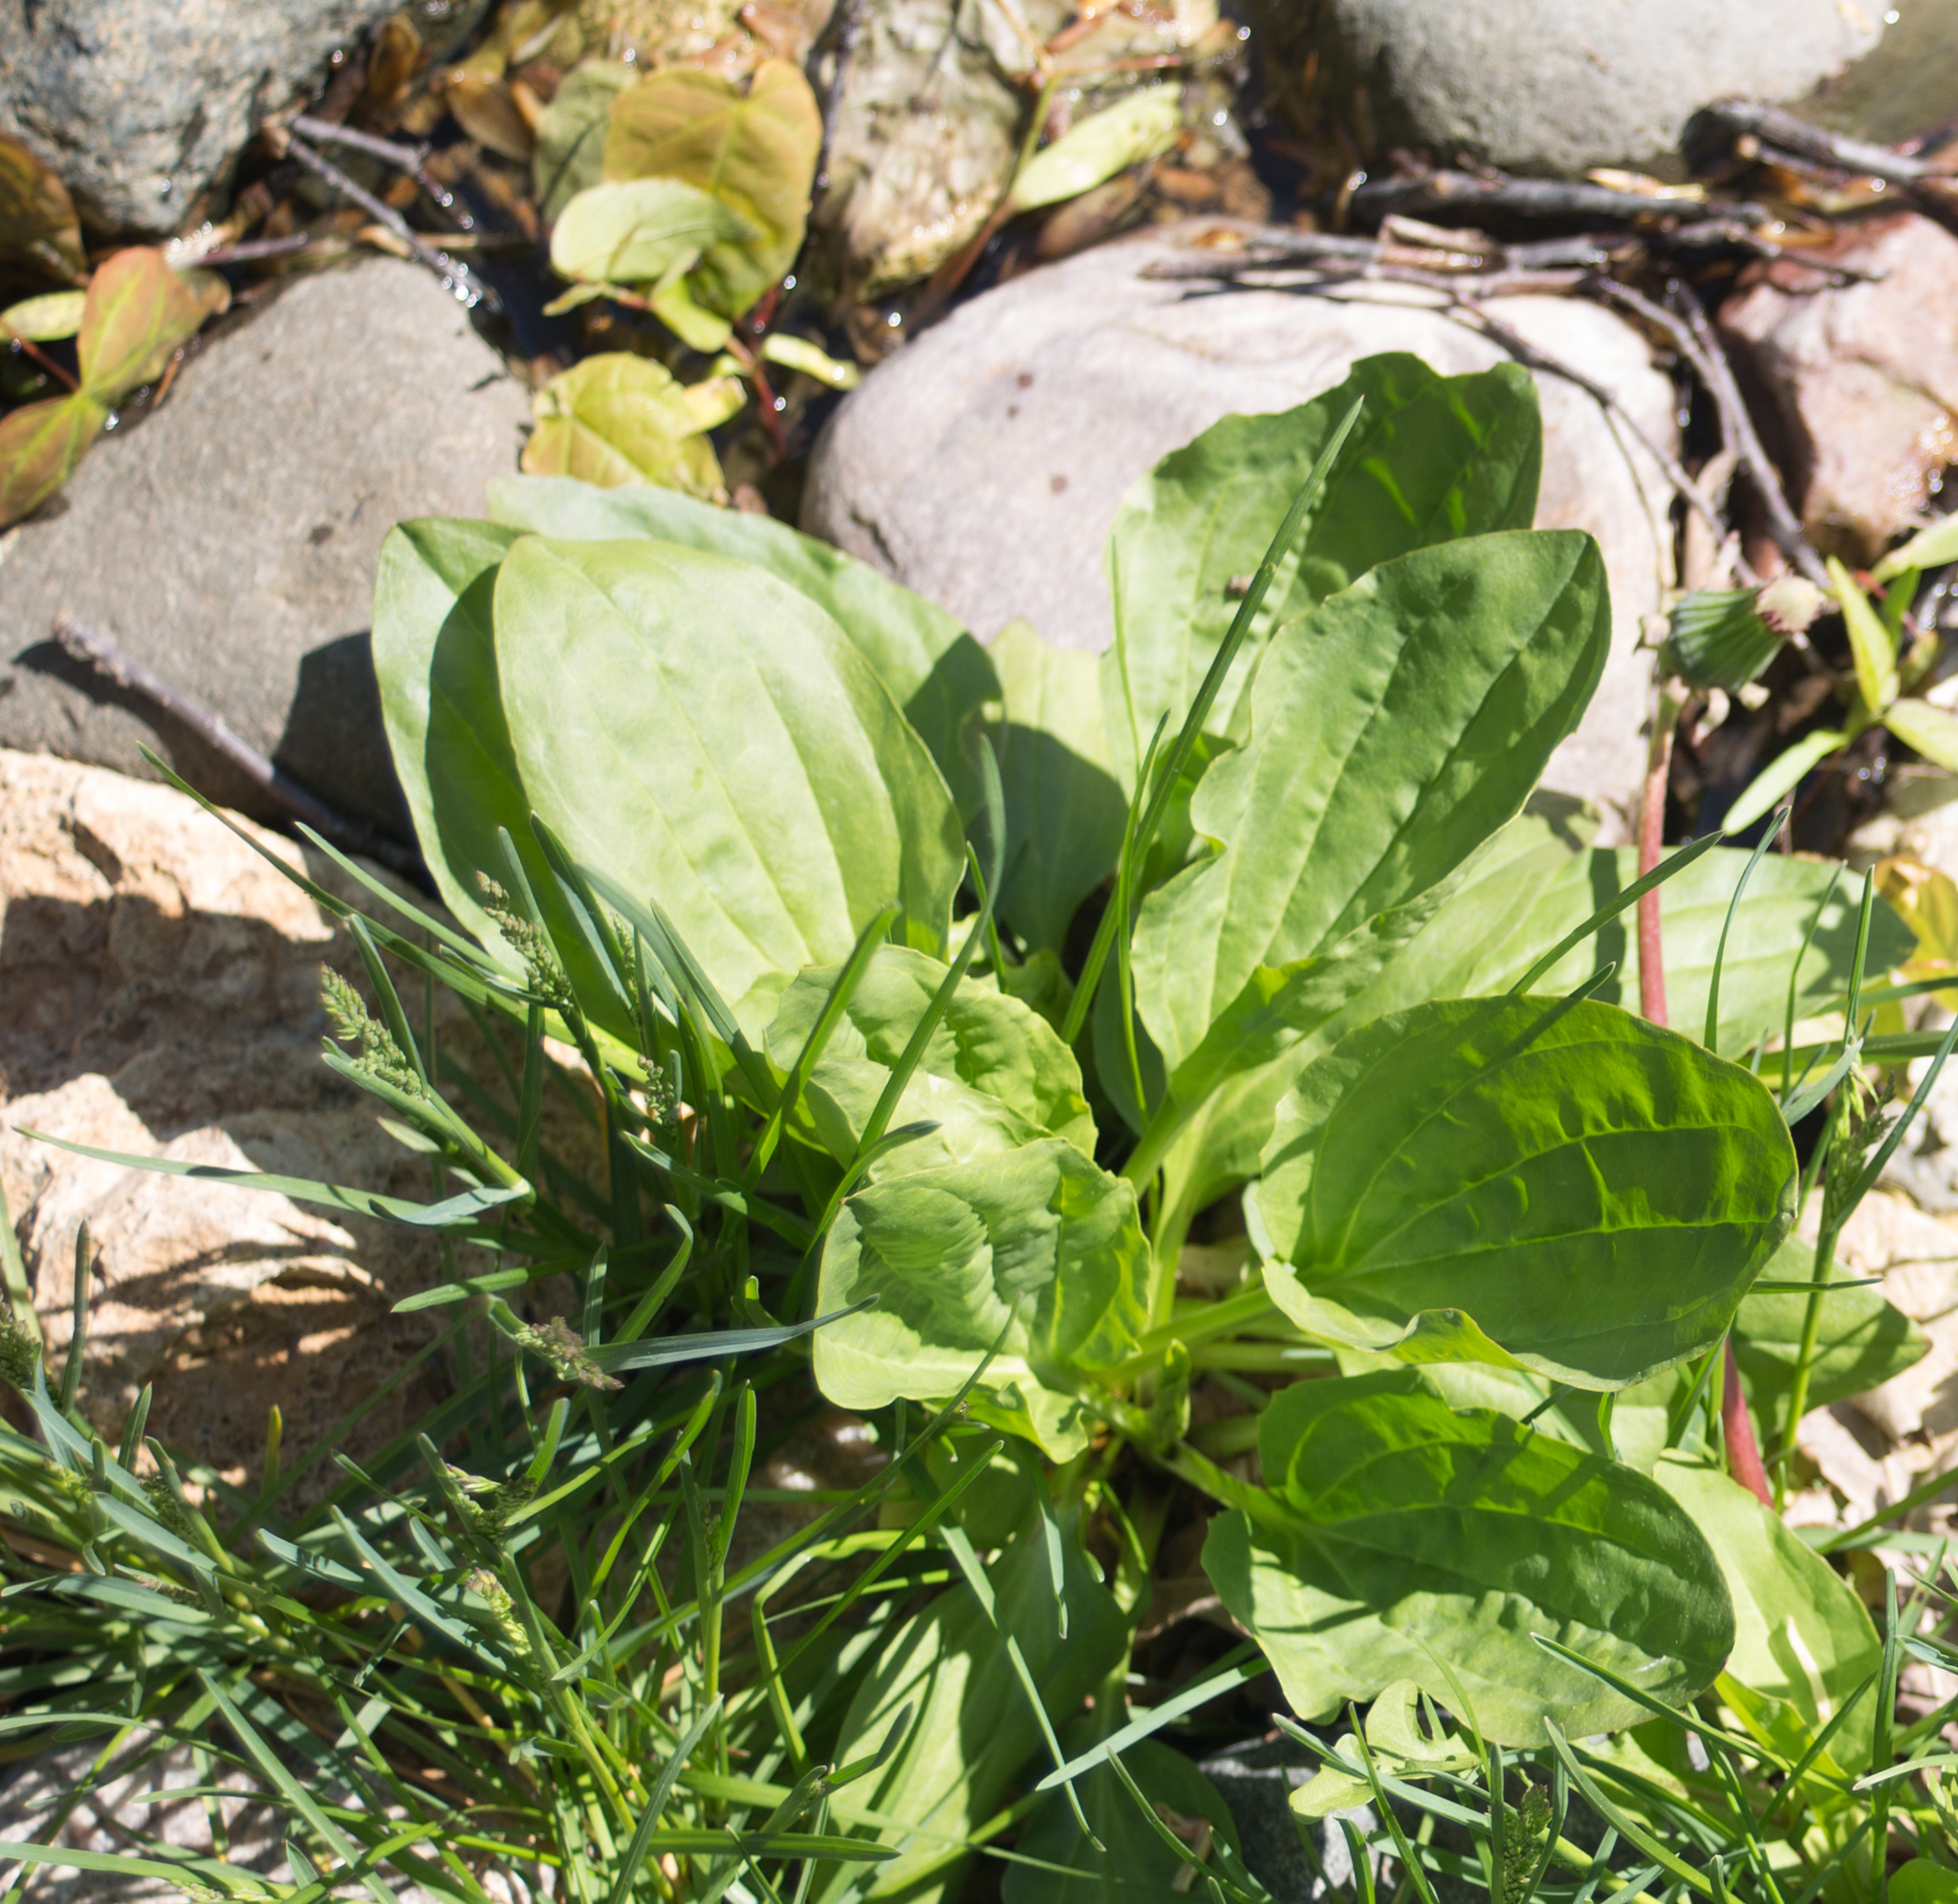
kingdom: Plantae
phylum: Tracheophyta
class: Magnoliopsida
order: Lamiales
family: Plantaginaceae
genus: Plantago
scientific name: Plantago major
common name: Common plantain
